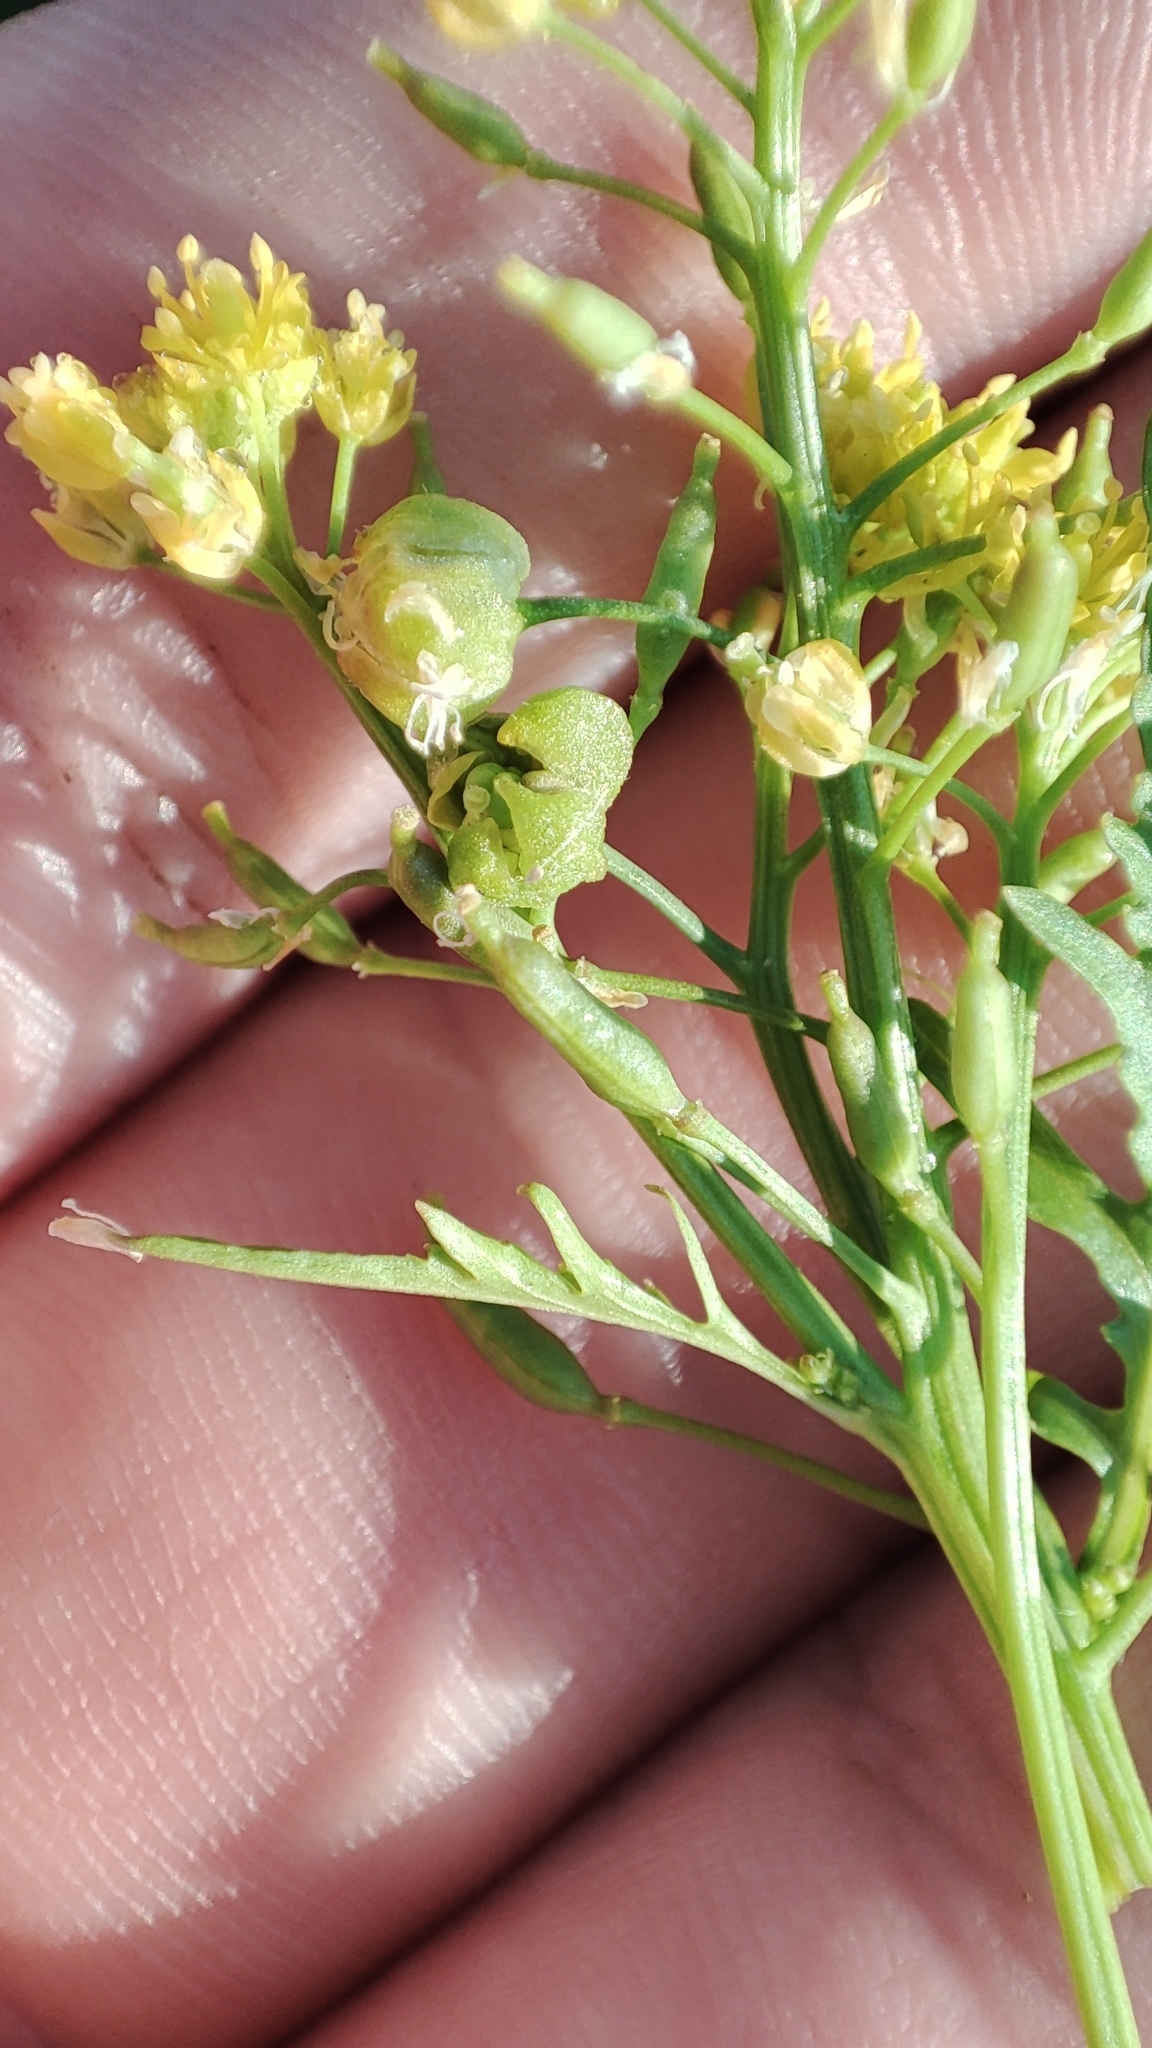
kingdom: Plantae
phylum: Tracheophyta
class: Magnoliopsida
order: Brassicales
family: Brassicaceae
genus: Rorippa
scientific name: Rorippa palustris
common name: Marsh yellow-cress
